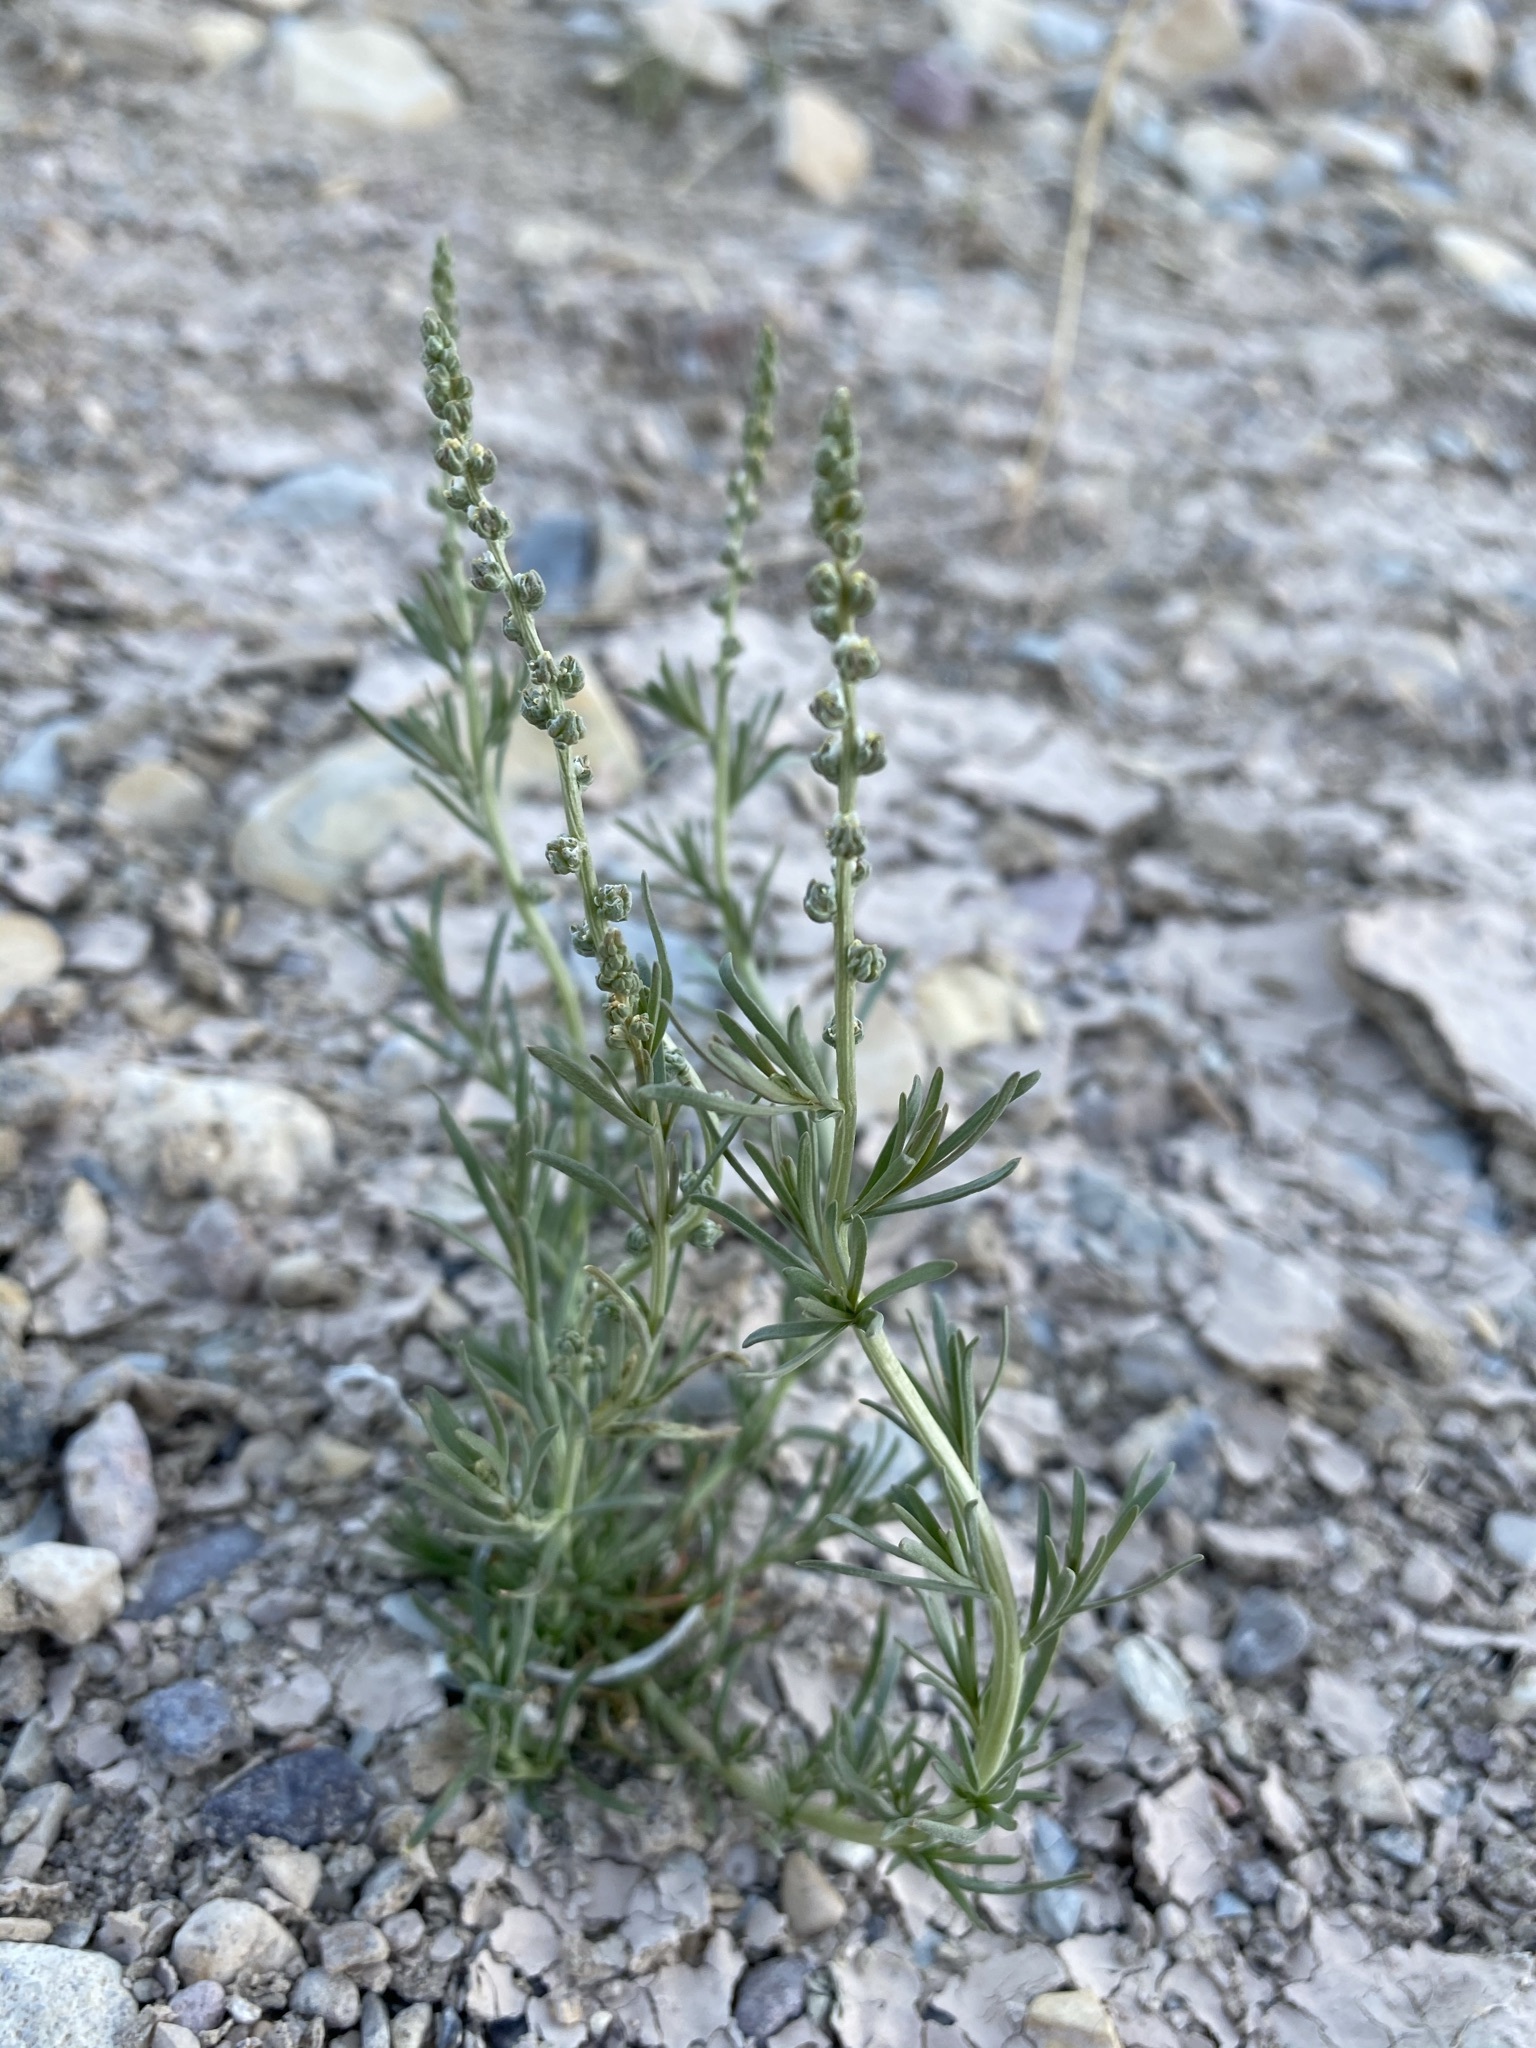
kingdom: Plantae
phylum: Tracheophyta
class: Magnoliopsida
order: Brassicales
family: Resedaceae
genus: Oligomeris
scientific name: Oligomeris linifolia
